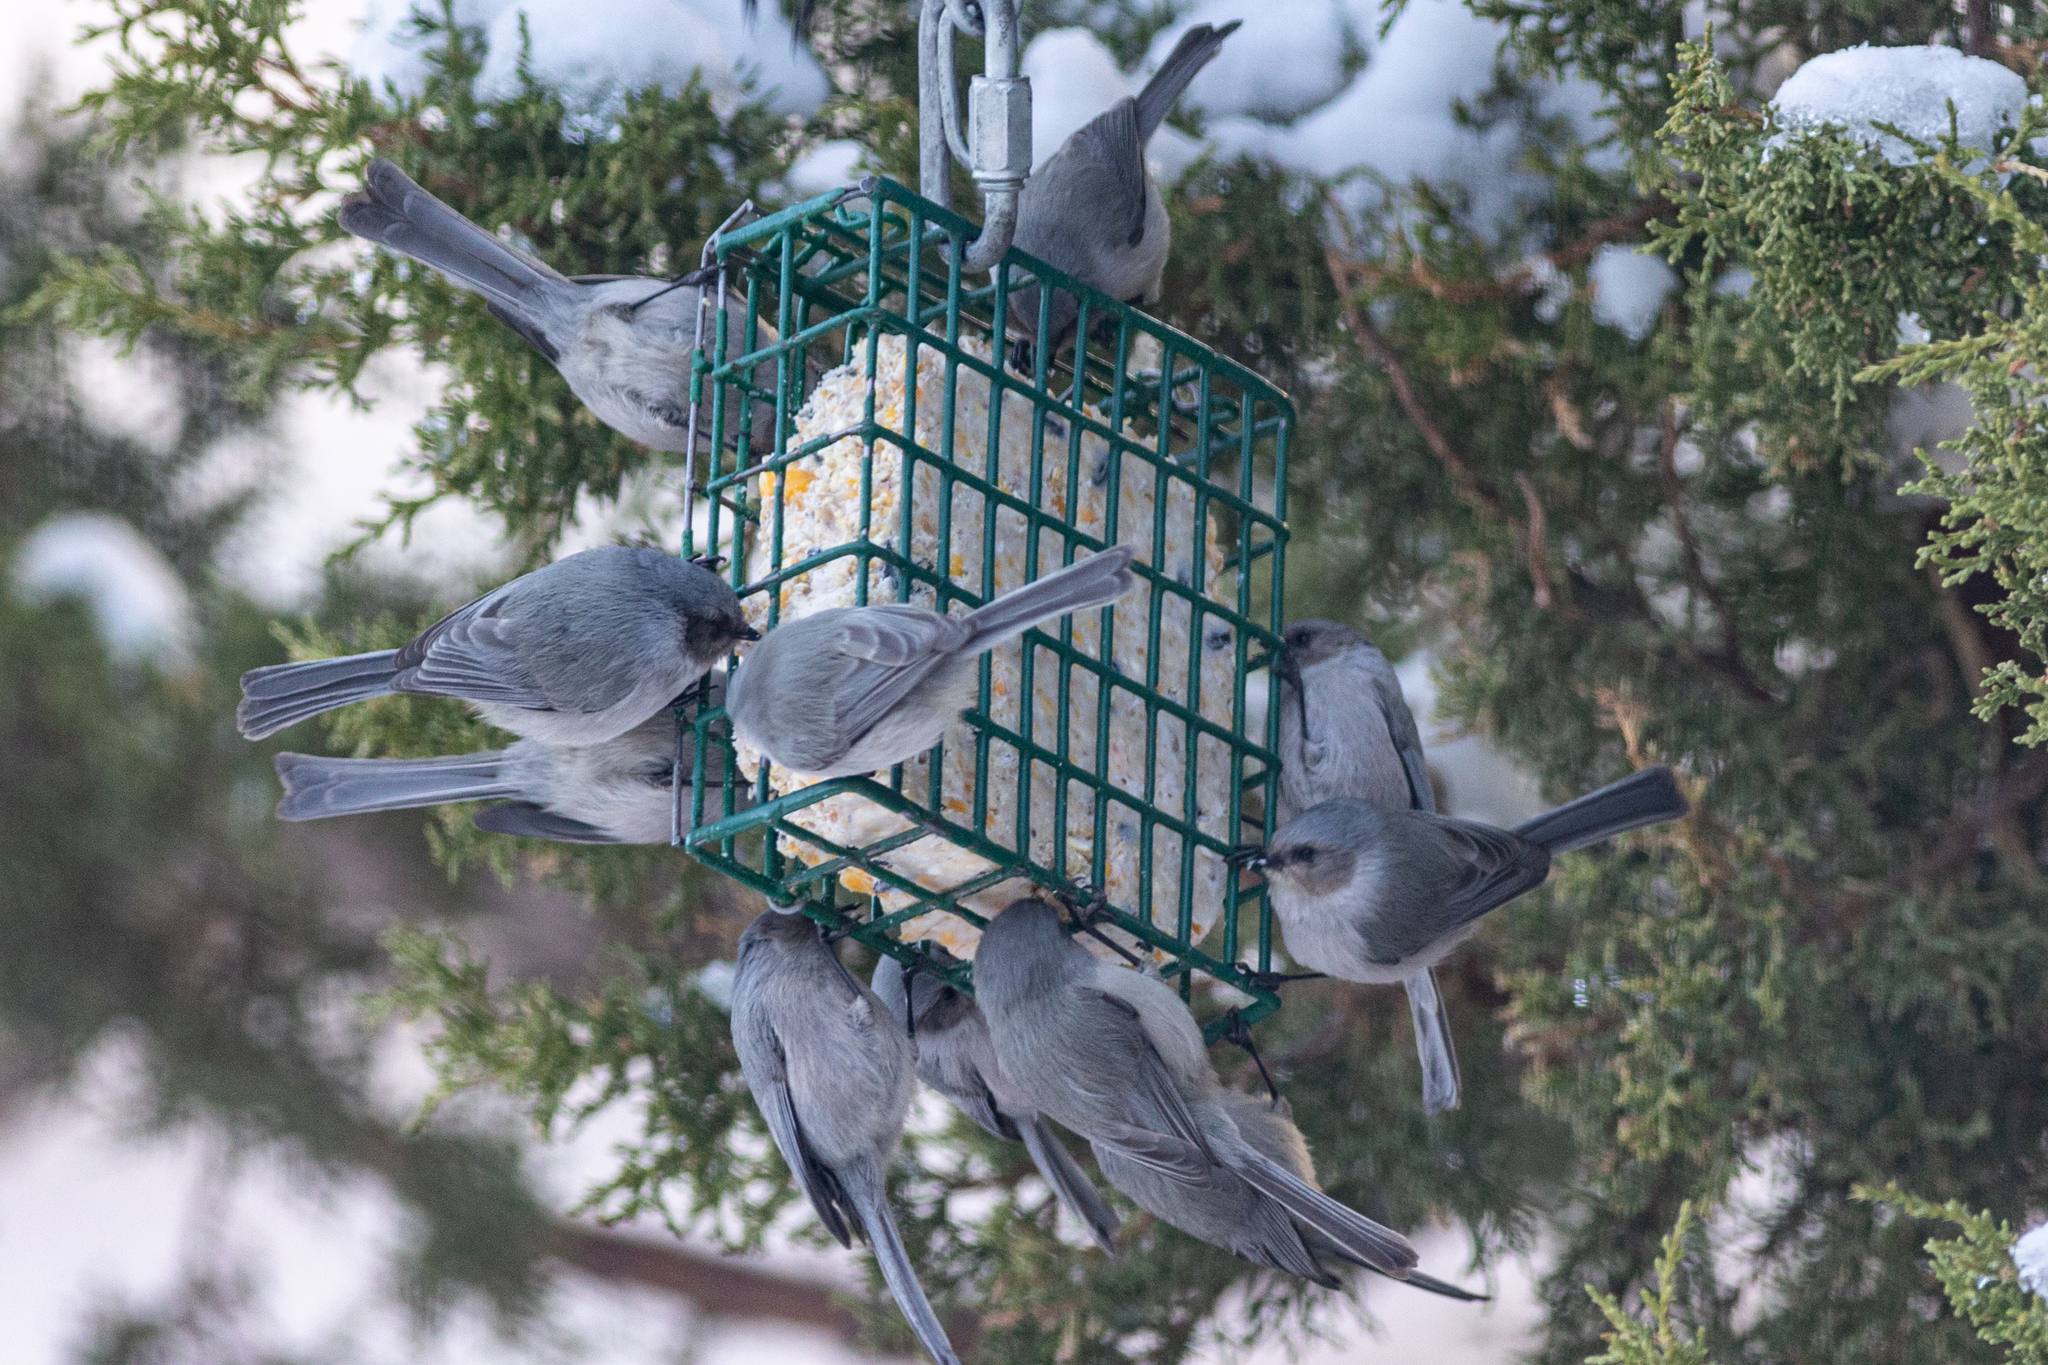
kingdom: Animalia
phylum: Chordata
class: Aves
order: Passeriformes
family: Aegithalidae
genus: Psaltriparus
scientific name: Psaltriparus minimus
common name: American bushtit
